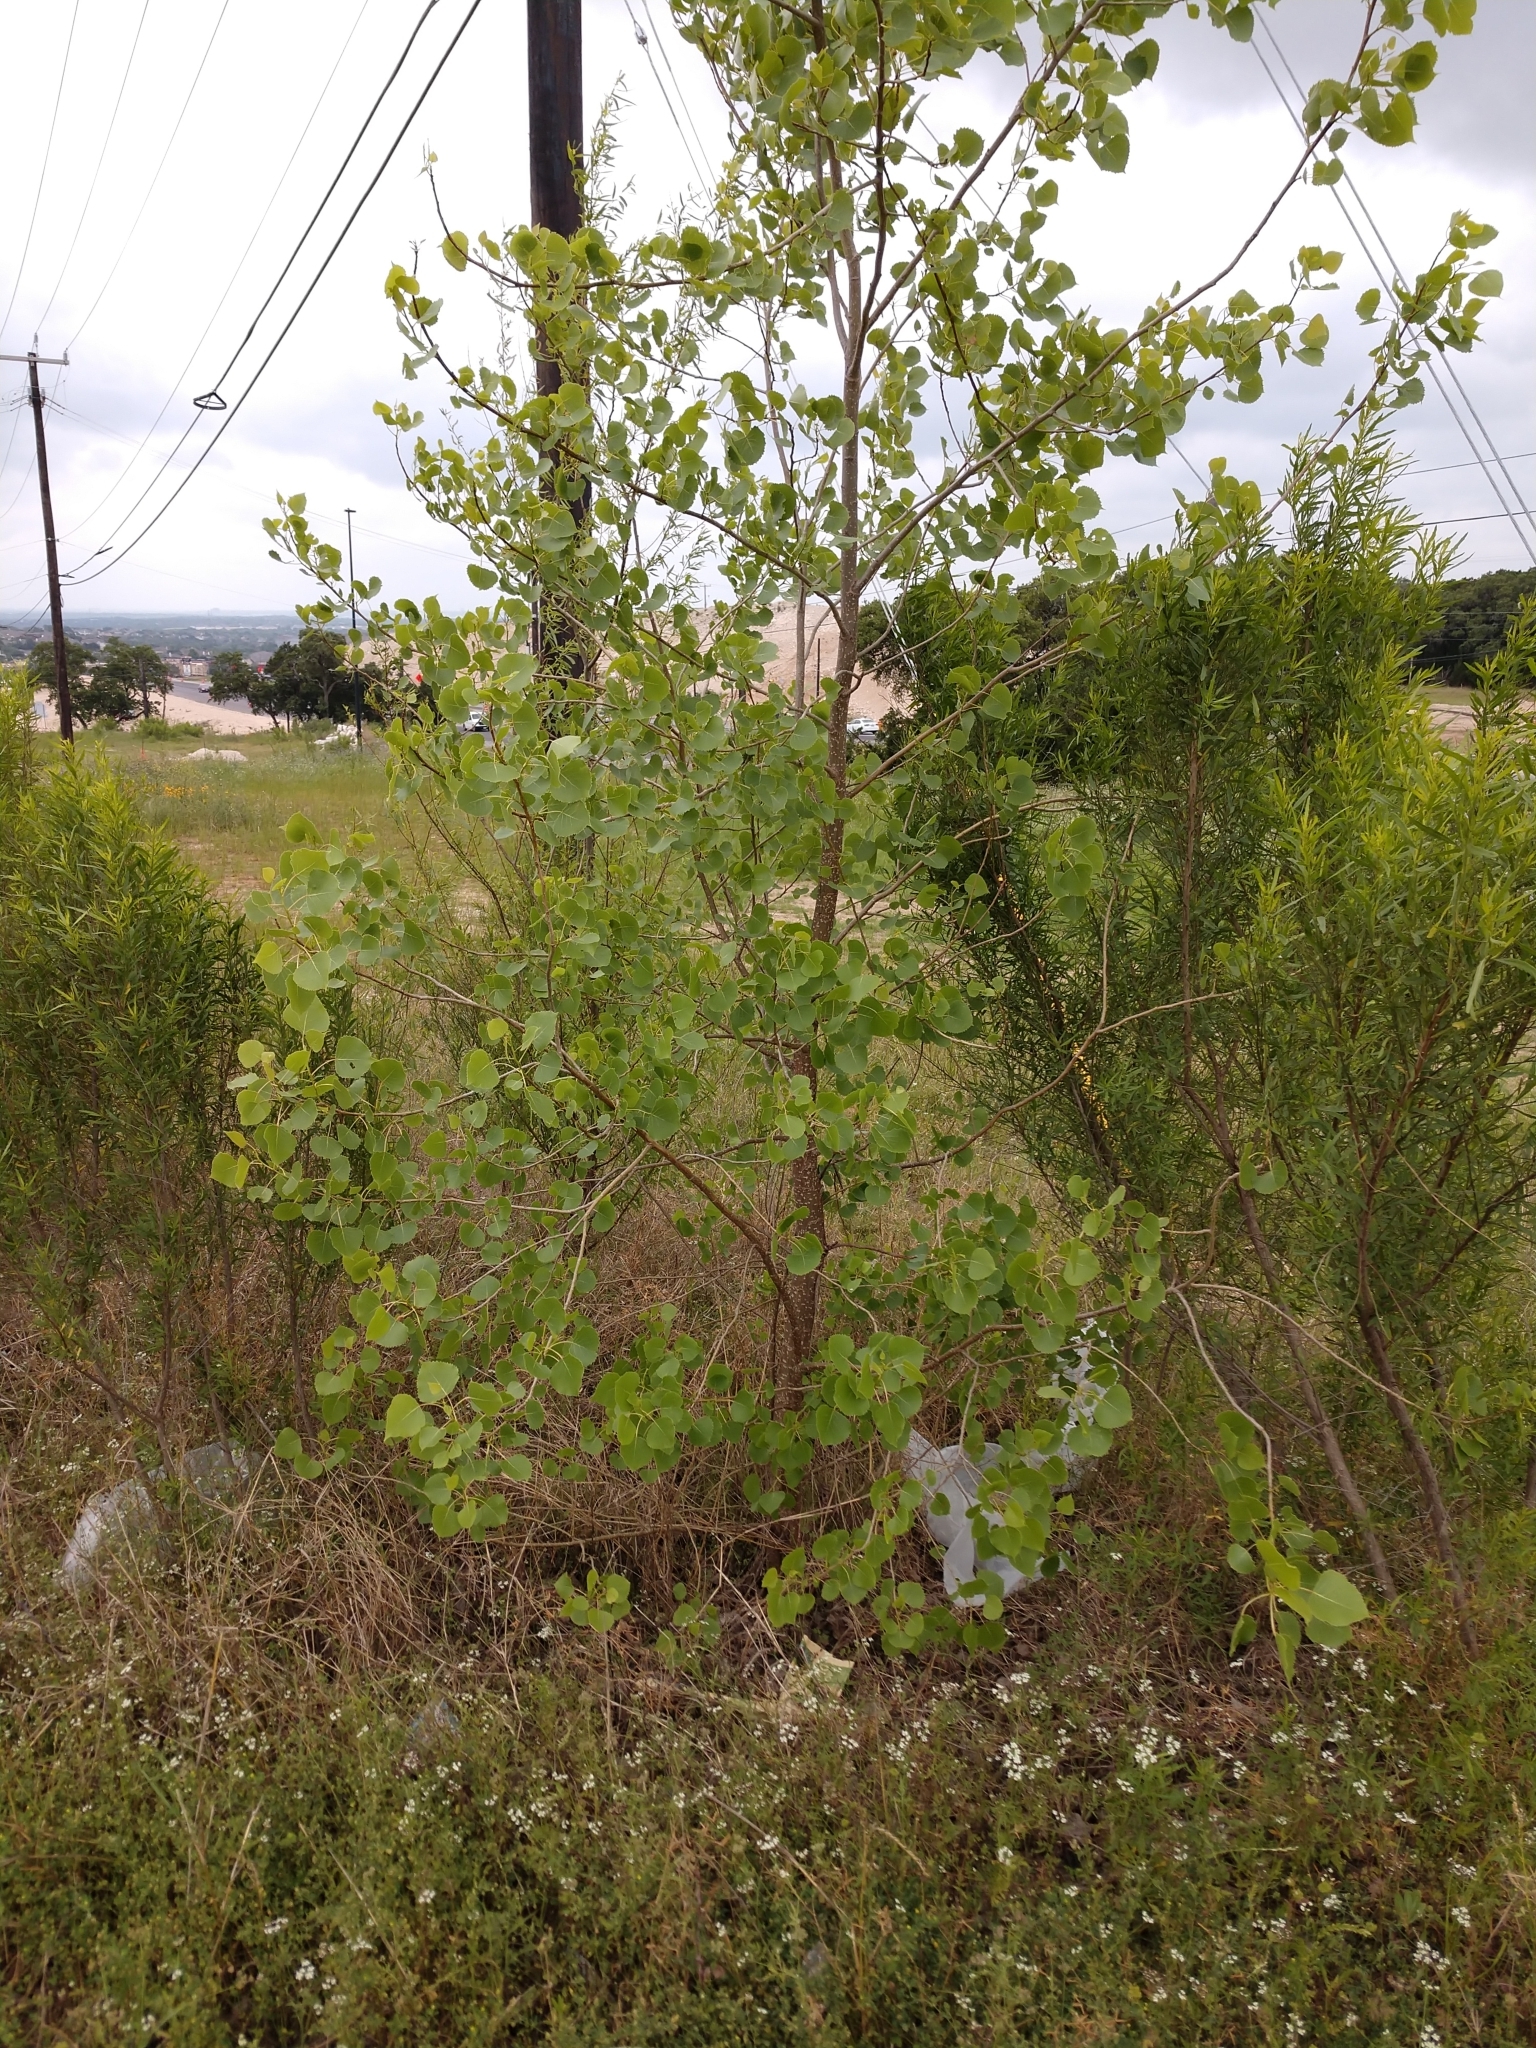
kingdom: Plantae
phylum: Tracheophyta
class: Magnoliopsida
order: Malpighiales
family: Salicaceae
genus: Populus
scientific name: Populus deltoides
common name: Eastern cottonwood
